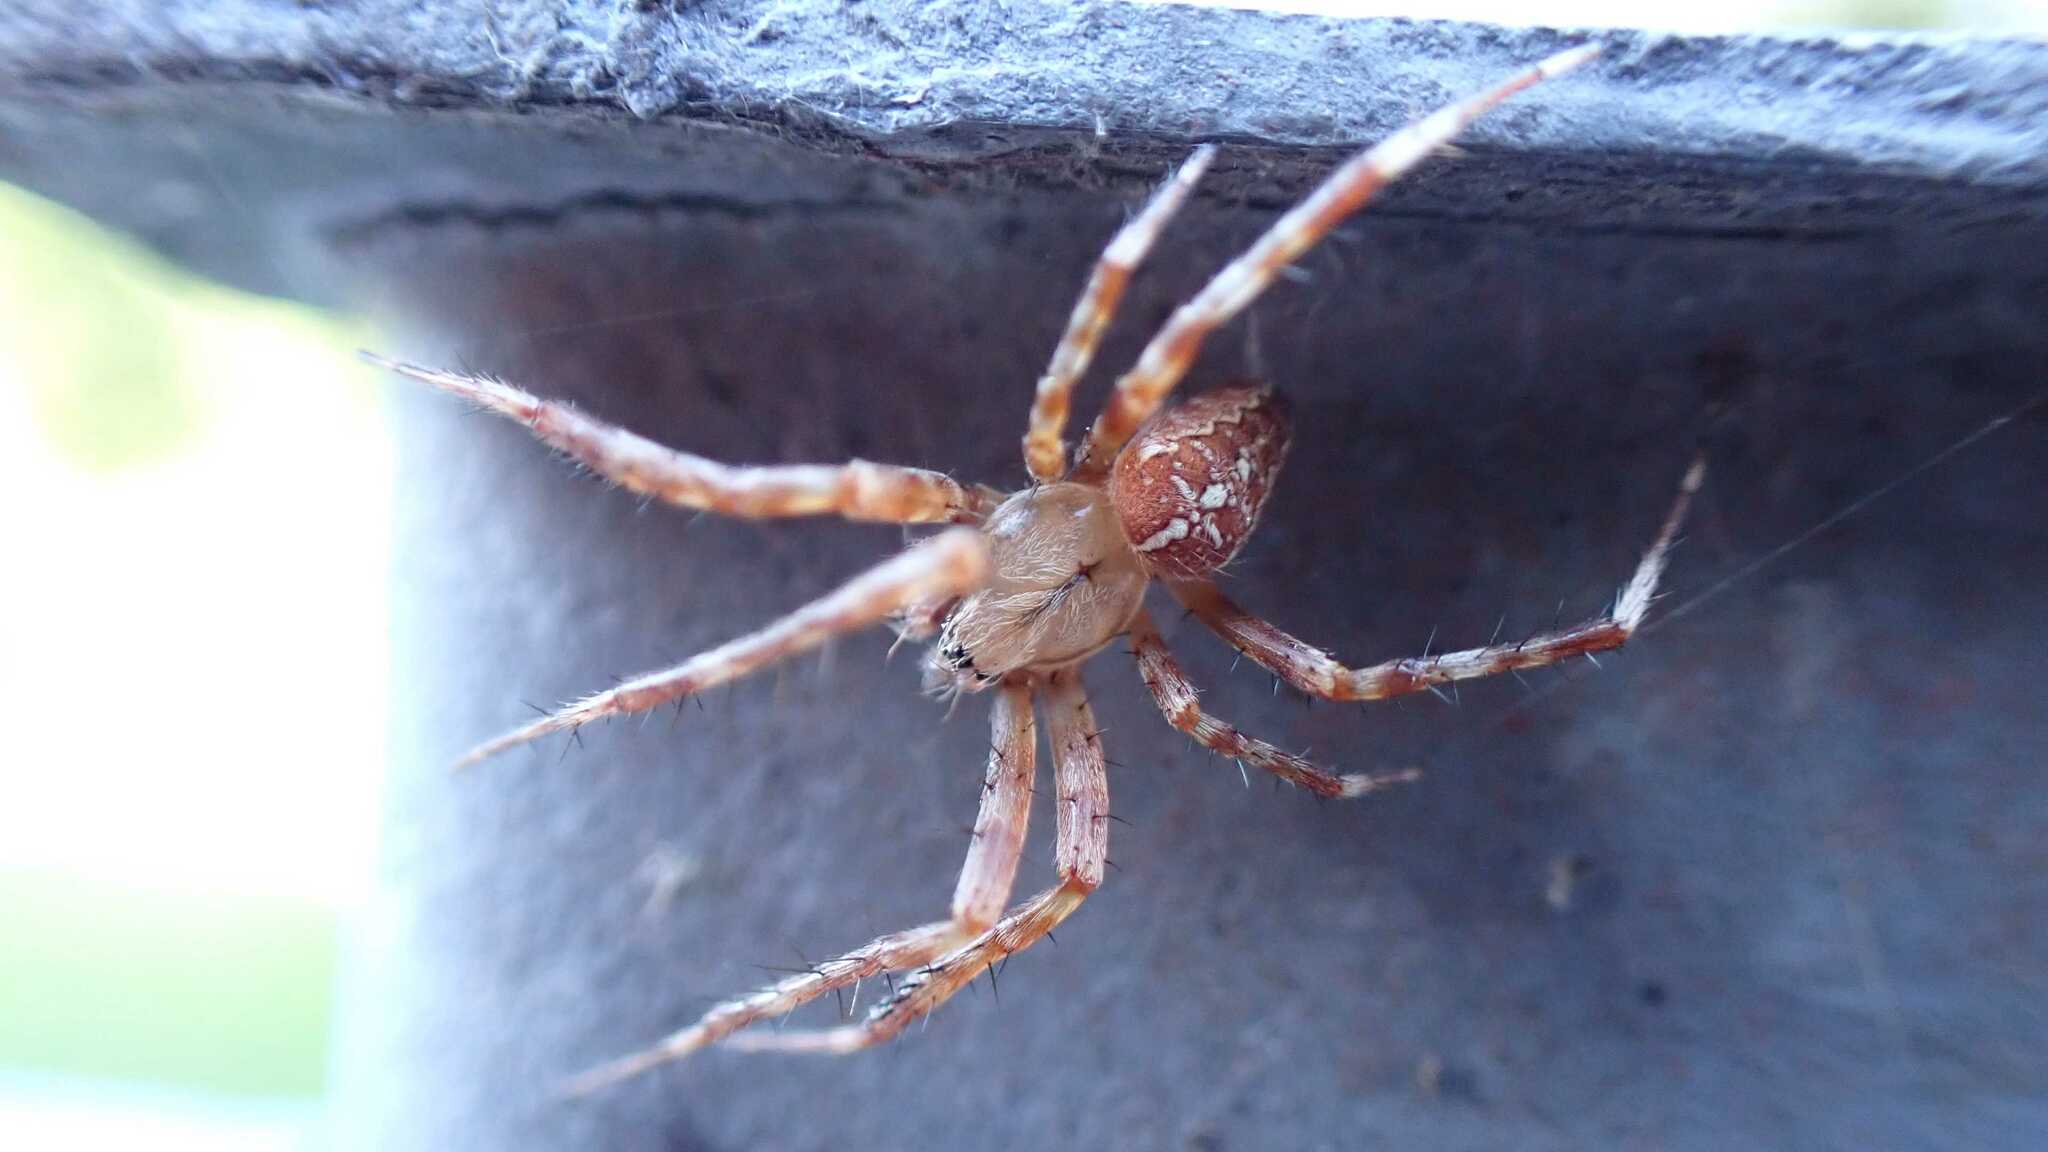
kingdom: Animalia
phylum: Arthropoda
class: Arachnida
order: Araneae
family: Araneidae
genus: Araneus
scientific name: Araneus diadematus
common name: Cross orbweaver
